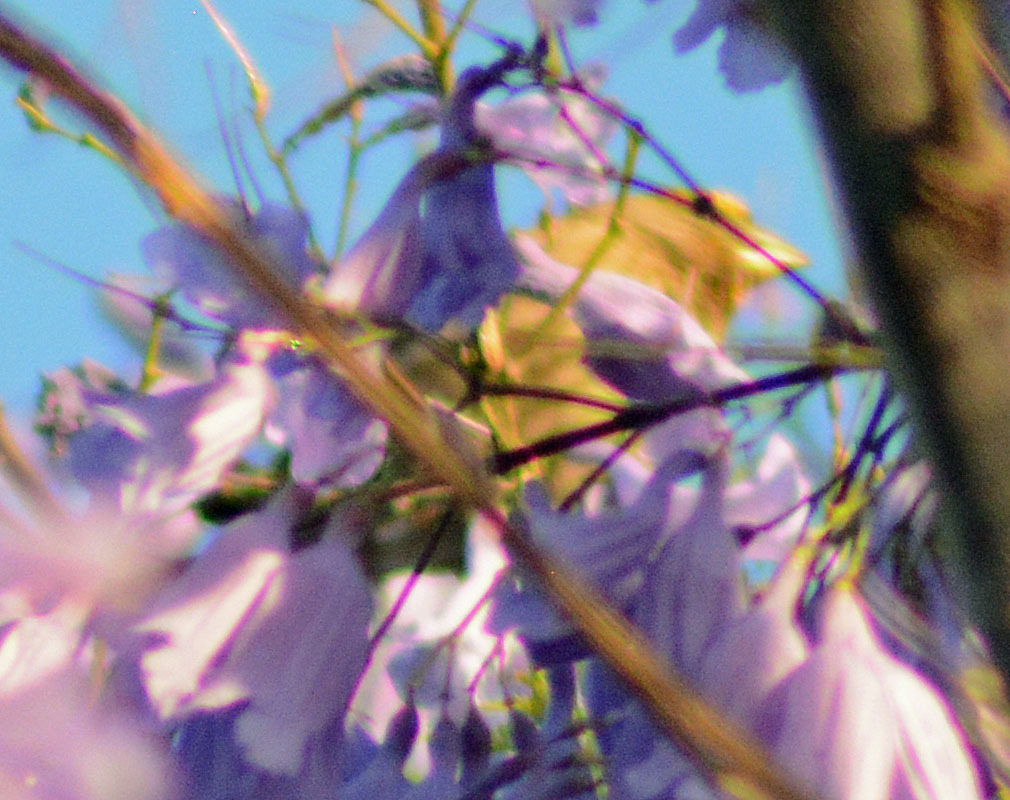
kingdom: Animalia
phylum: Chordata
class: Aves
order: Passeriformes
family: Fringillidae
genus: Haemorhous
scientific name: Haemorhous mexicanus
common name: House finch
